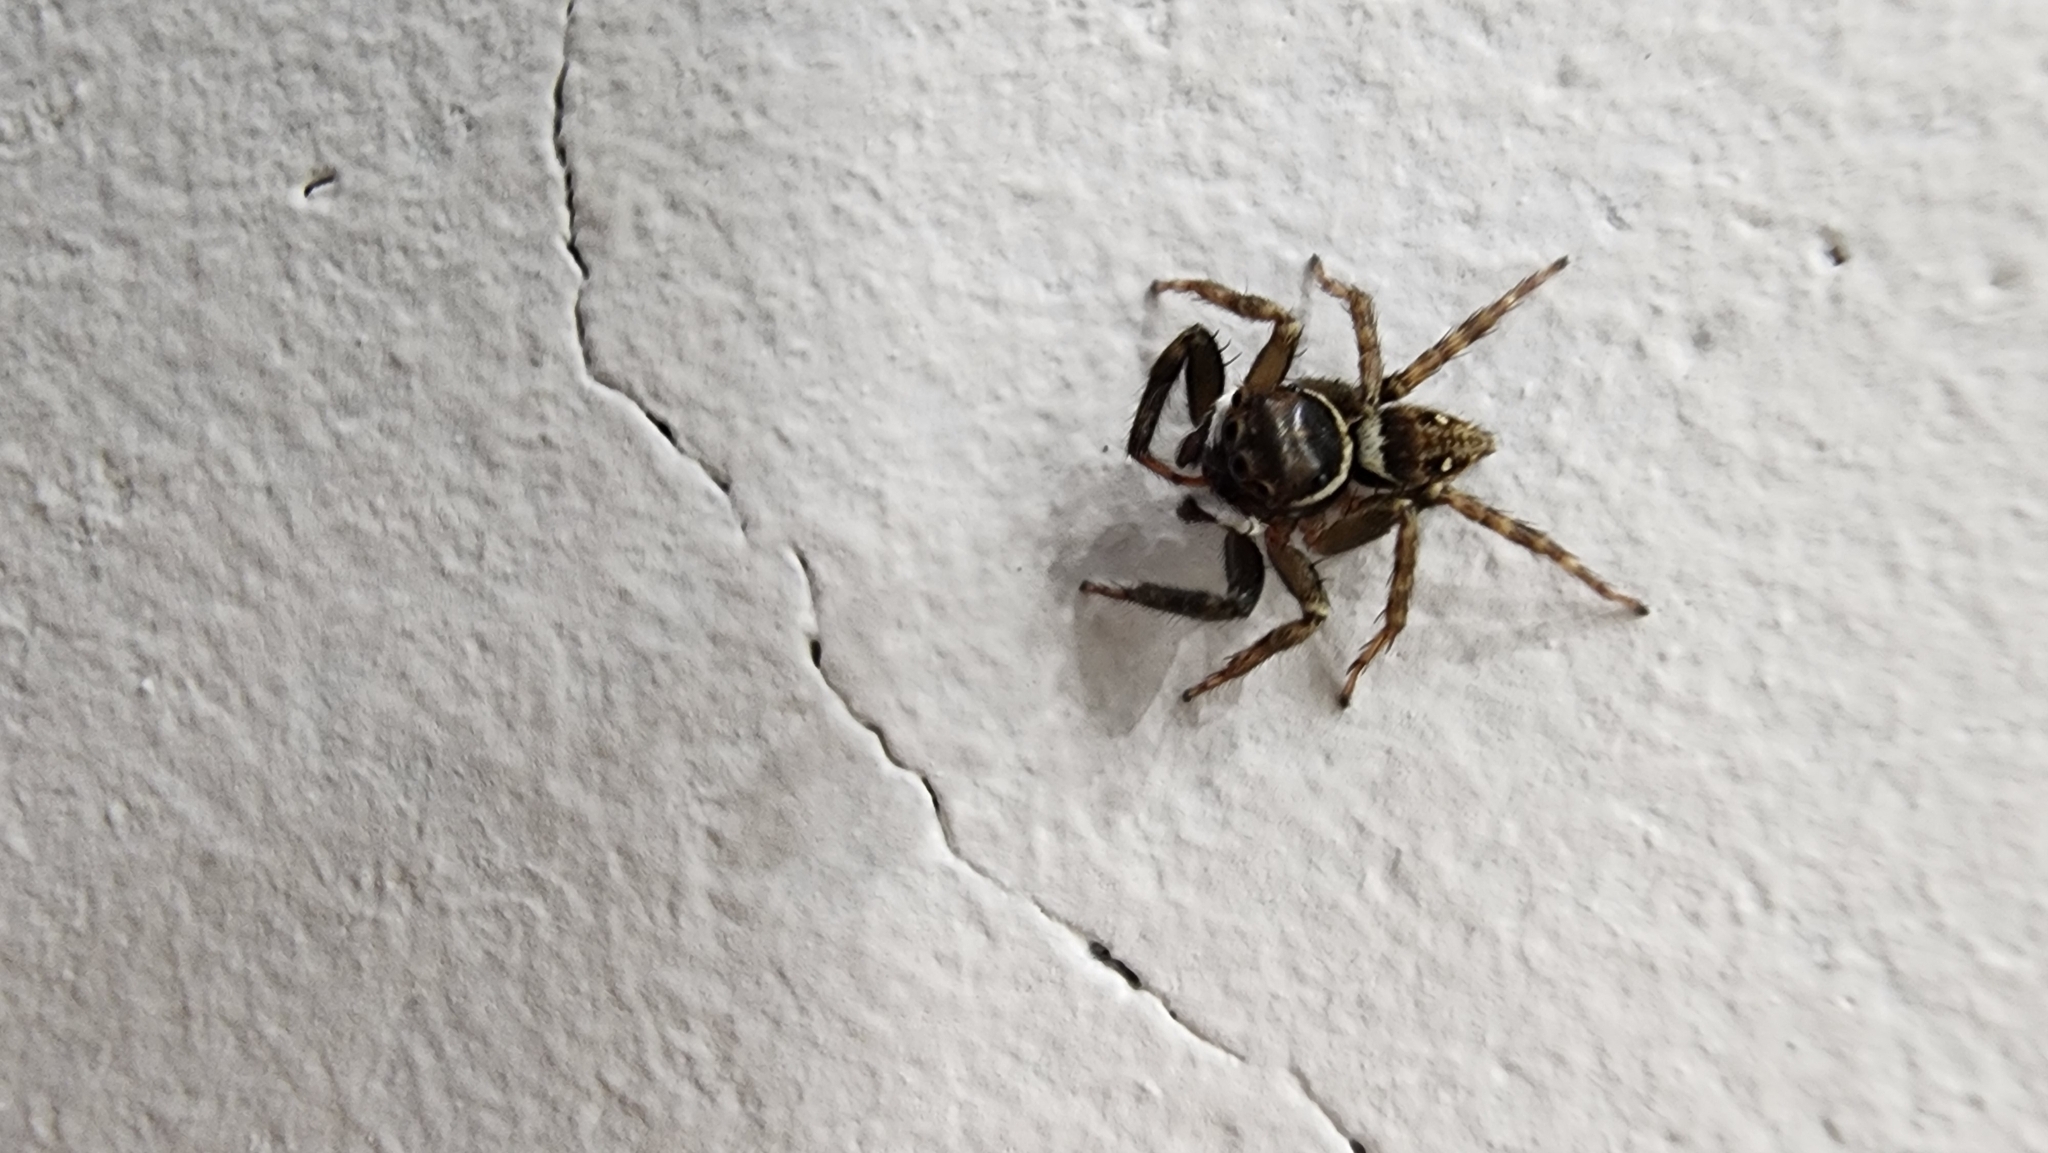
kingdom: Animalia
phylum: Arthropoda
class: Arachnida
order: Araneae
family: Salticidae
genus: Hasarius
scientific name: Hasarius adansoni
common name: Jumping spider
